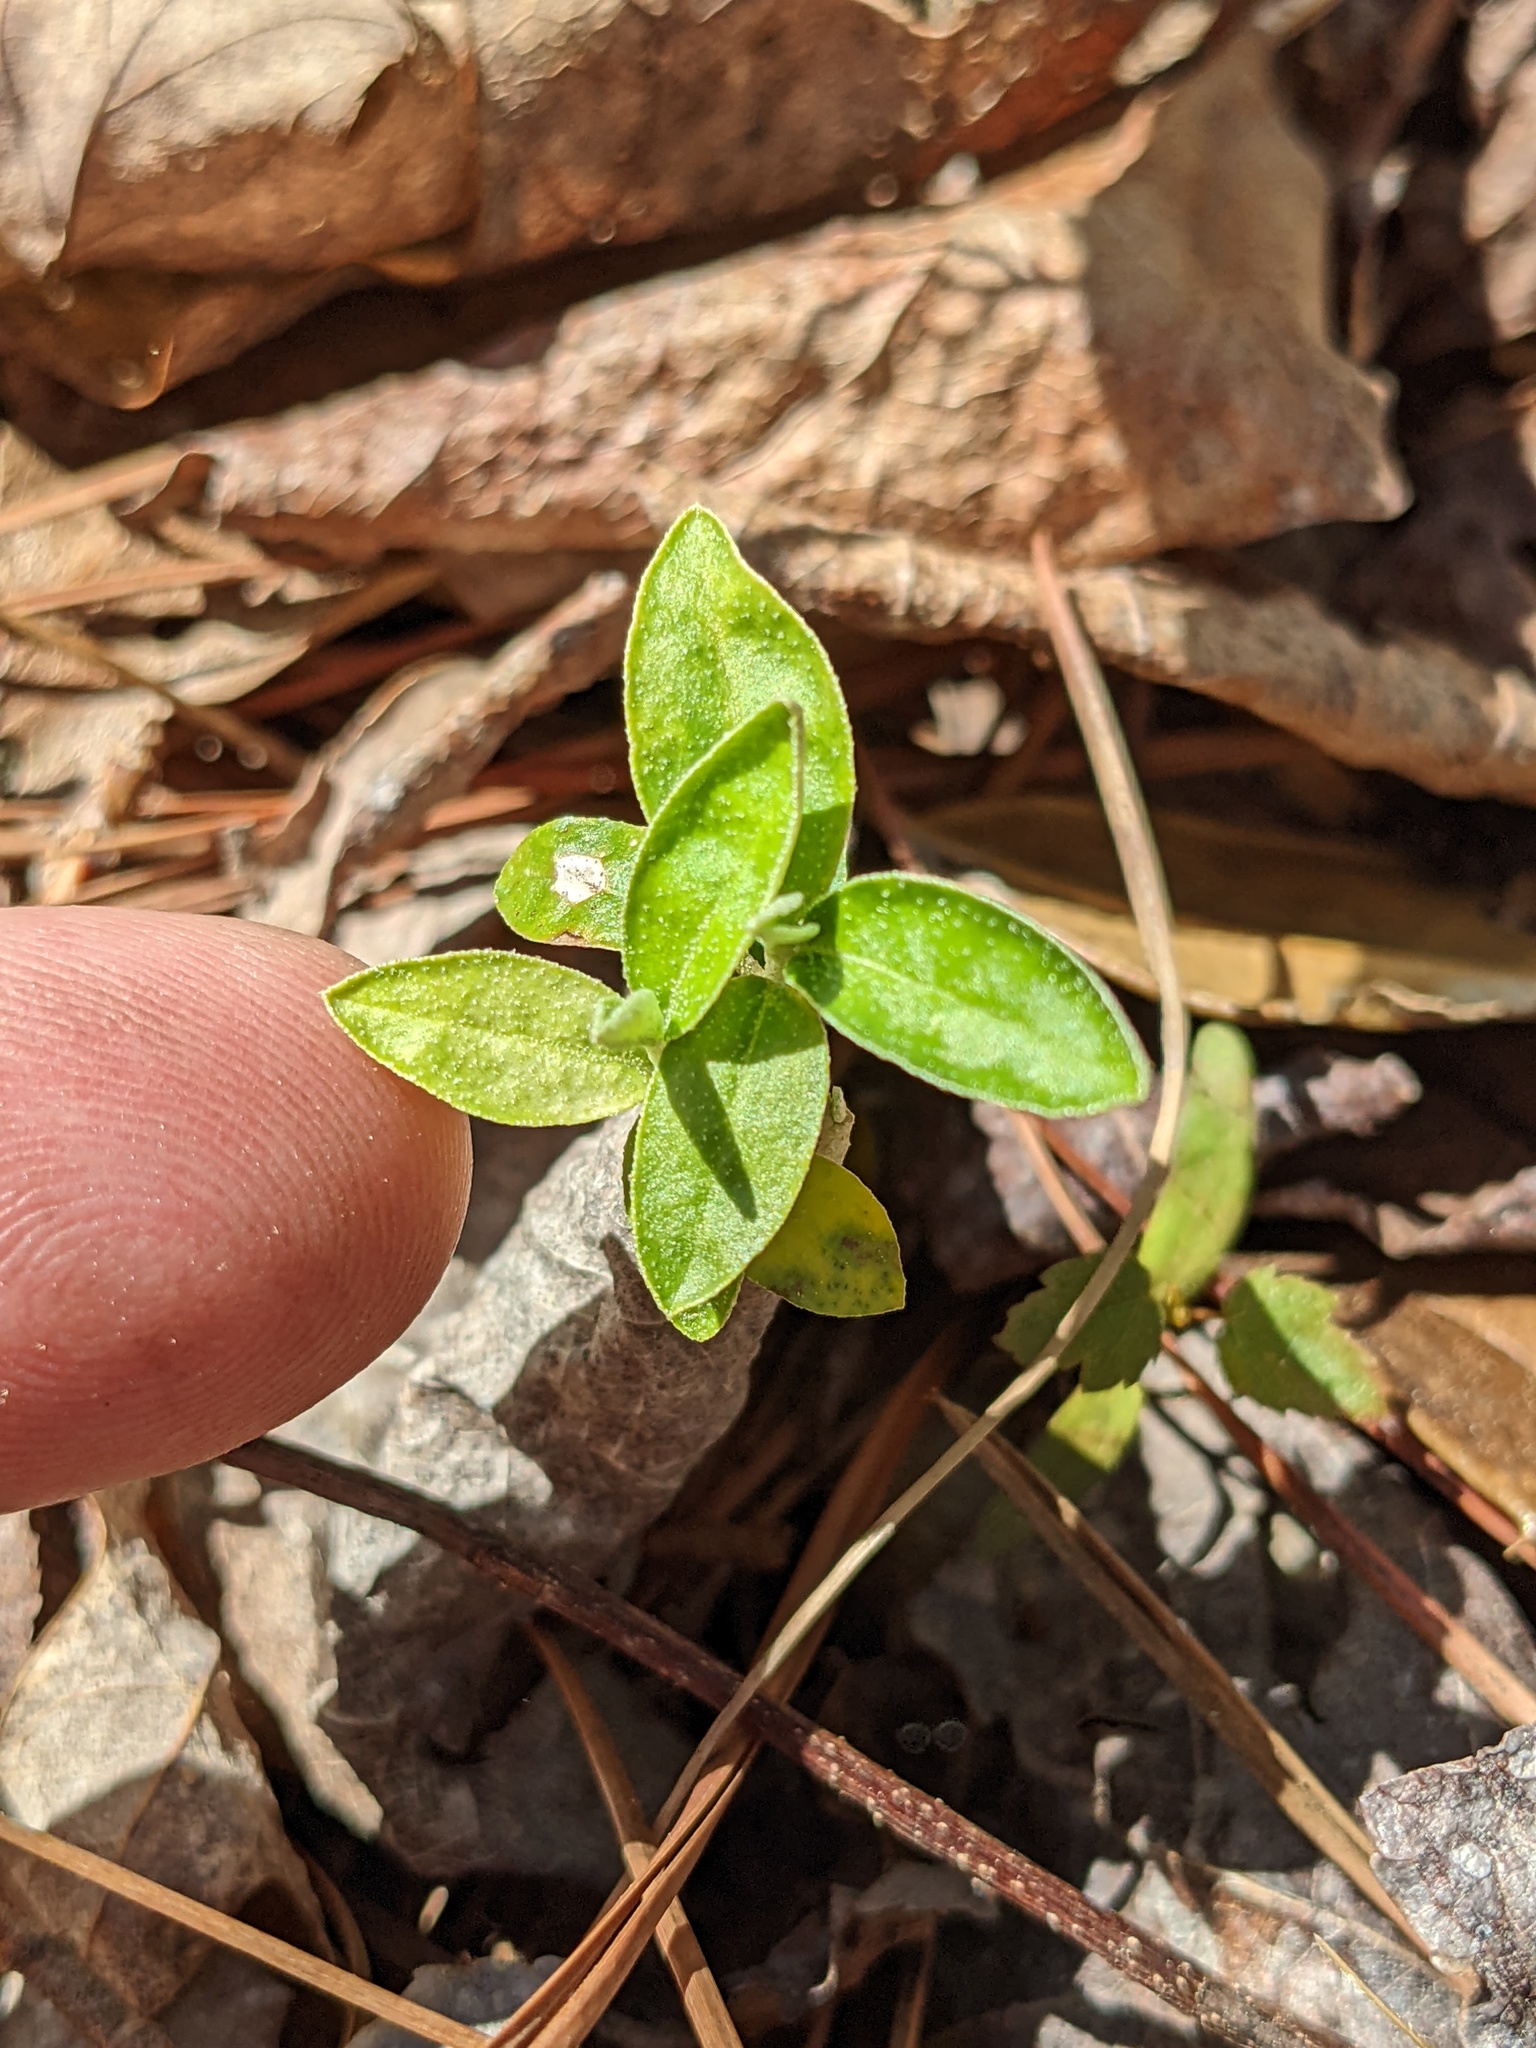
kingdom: Plantae
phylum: Tracheophyta
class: Magnoliopsida
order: Rosales
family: Elaeagnaceae
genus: Elaeagnus
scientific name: Elaeagnus umbellata
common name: Autumn olive
